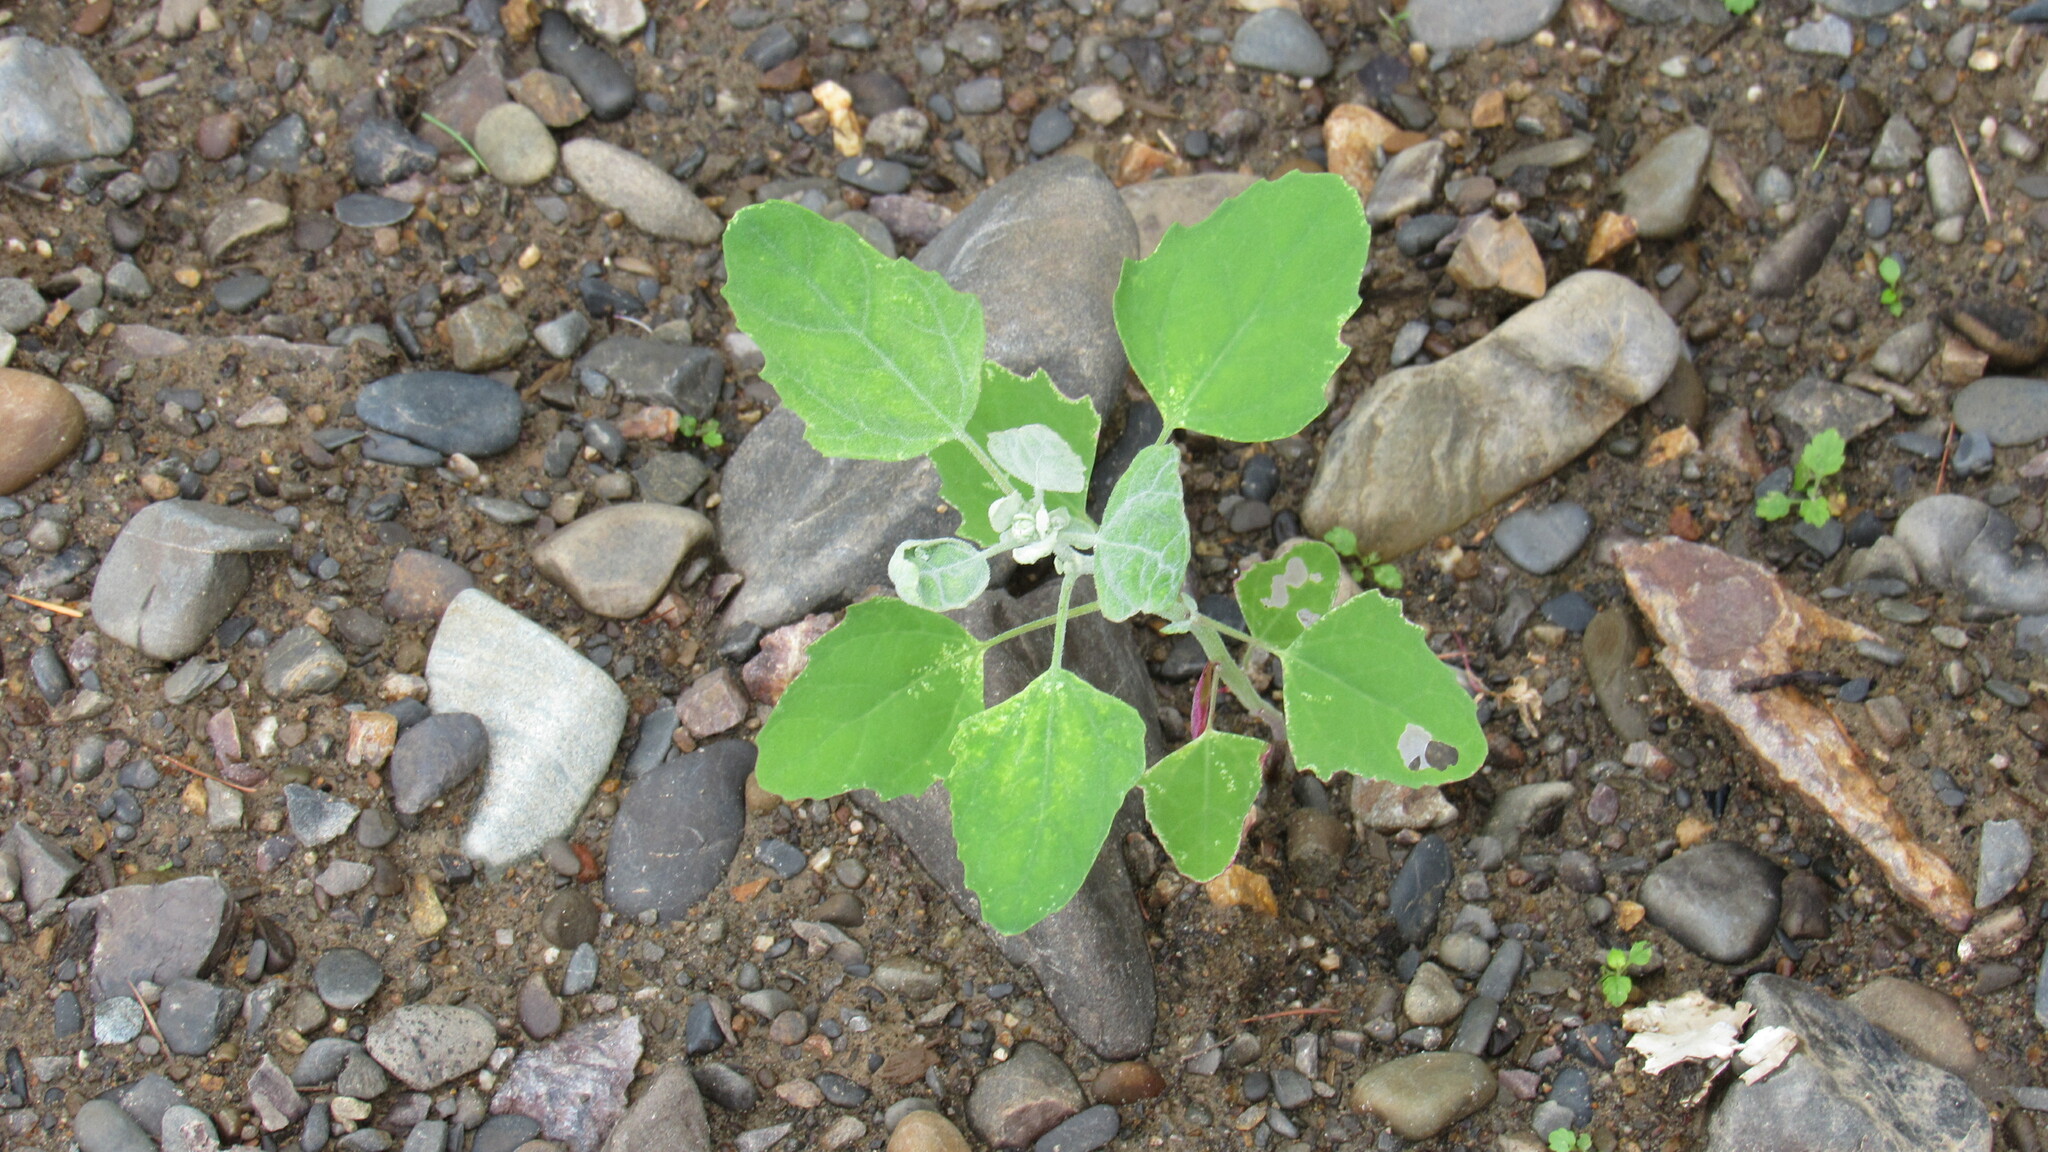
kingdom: Plantae
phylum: Tracheophyta
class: Magnoliopsida
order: Caryophyllales
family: Amaranthaceae
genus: Chenopodium
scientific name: Chenopodium album
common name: Fat-hen
